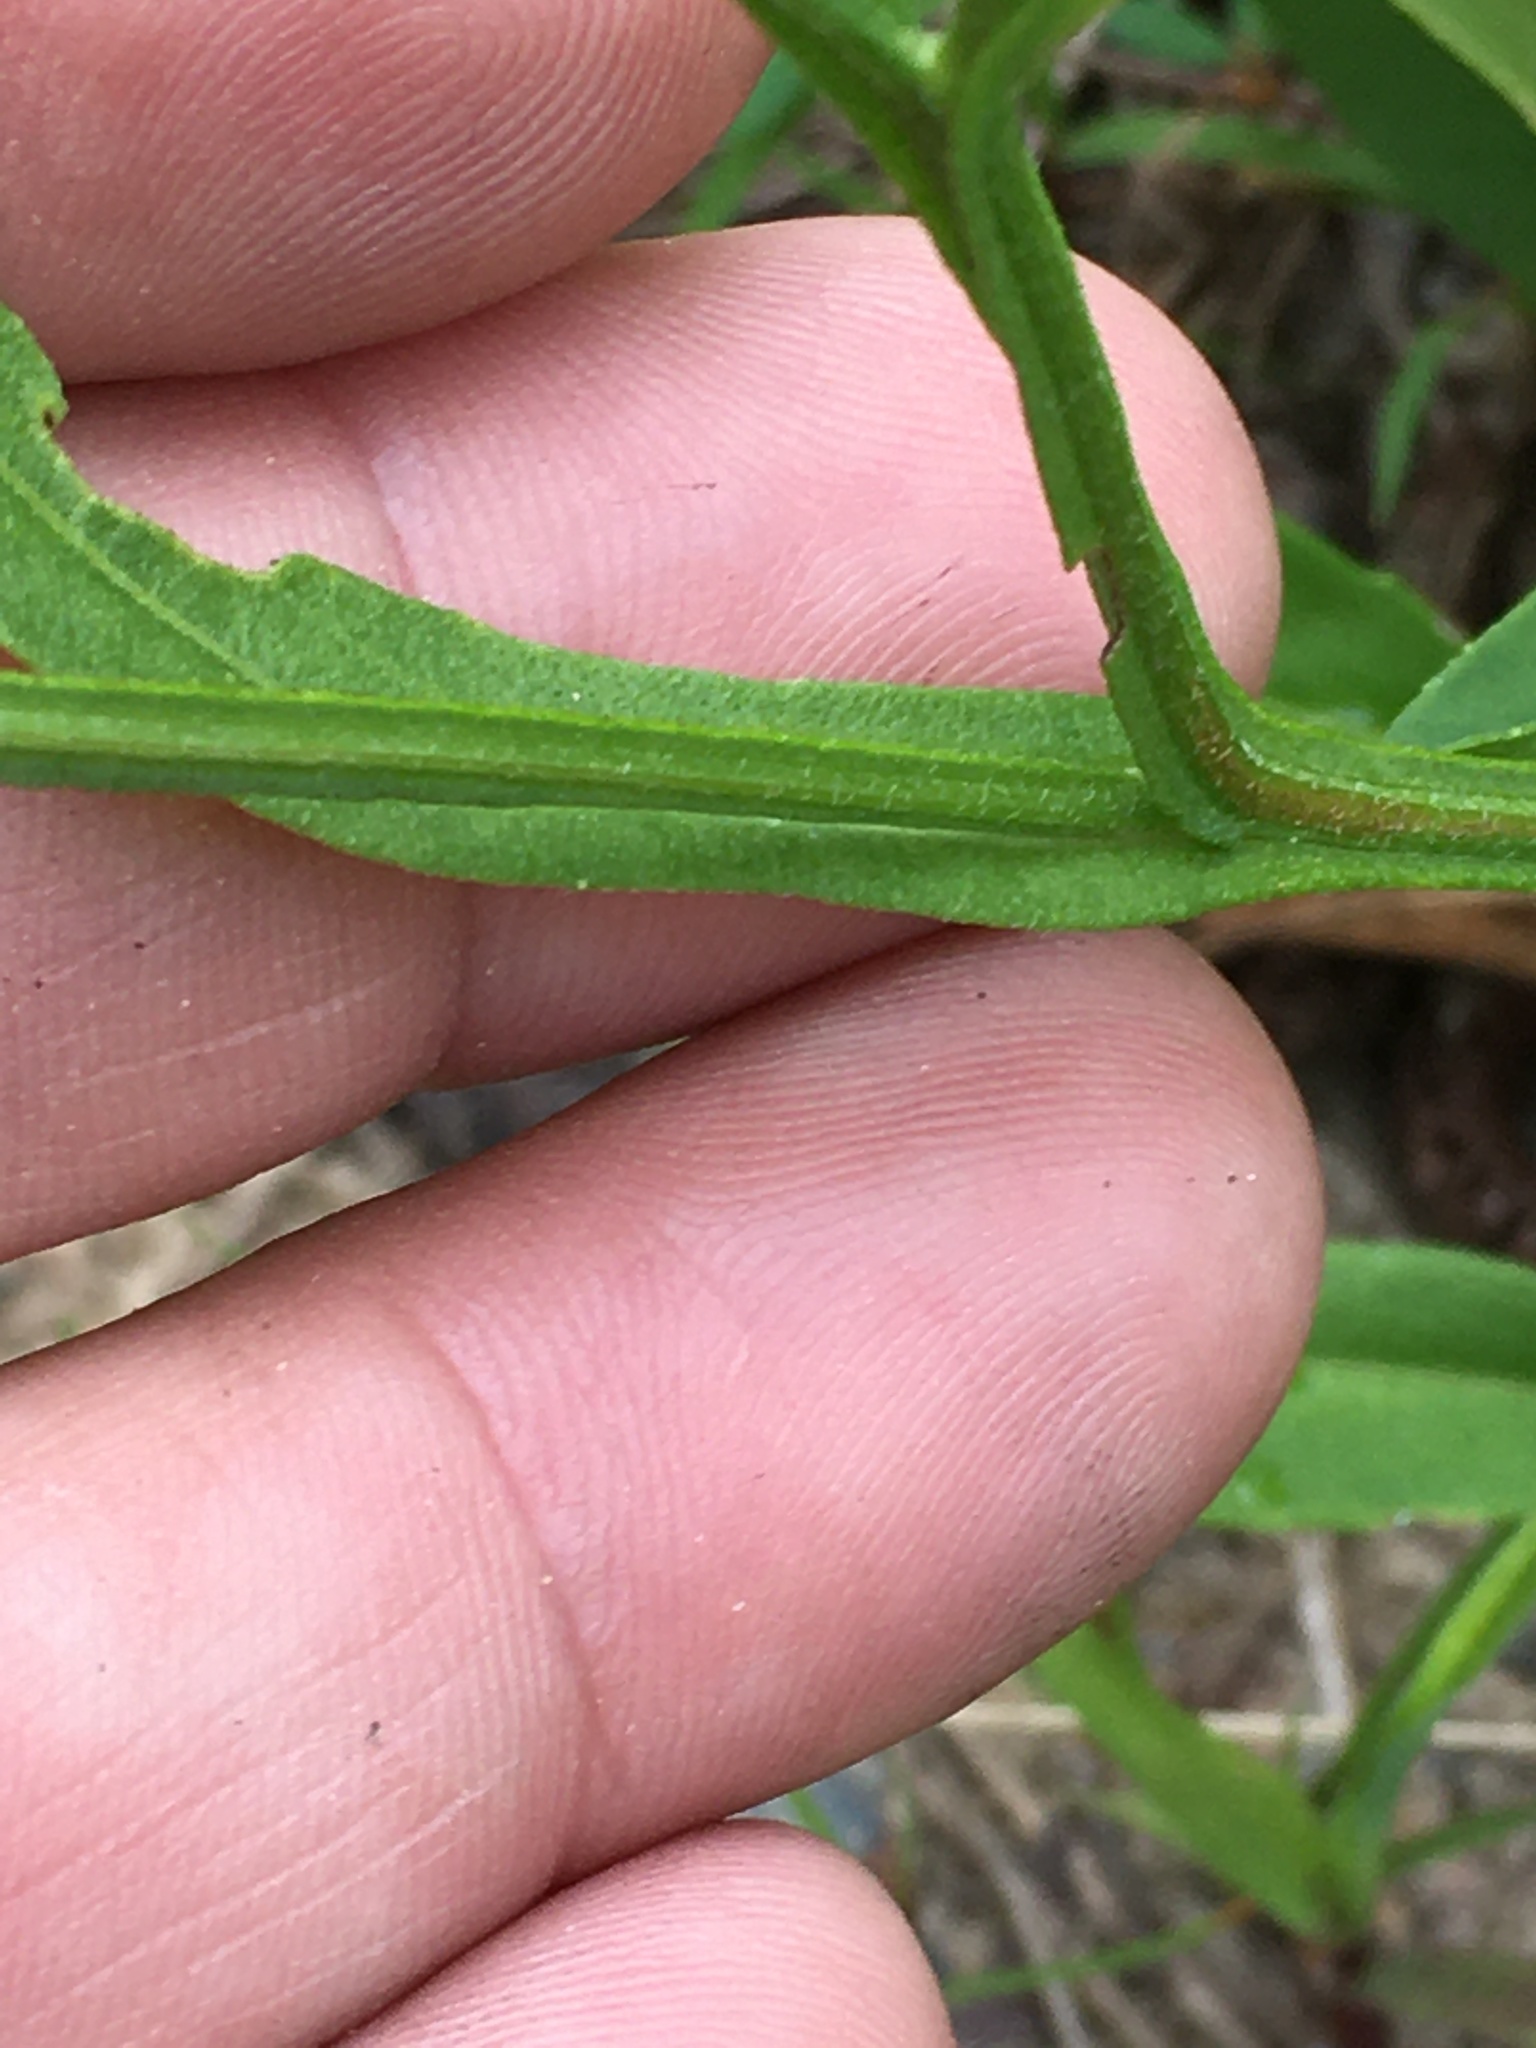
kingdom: Plantae
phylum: Tracheophyta
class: Magnoliopsida
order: Asterales
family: Asteraceae
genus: Helenium
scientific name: Helenium flexuosum
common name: Naked-flowered sneezeweed
